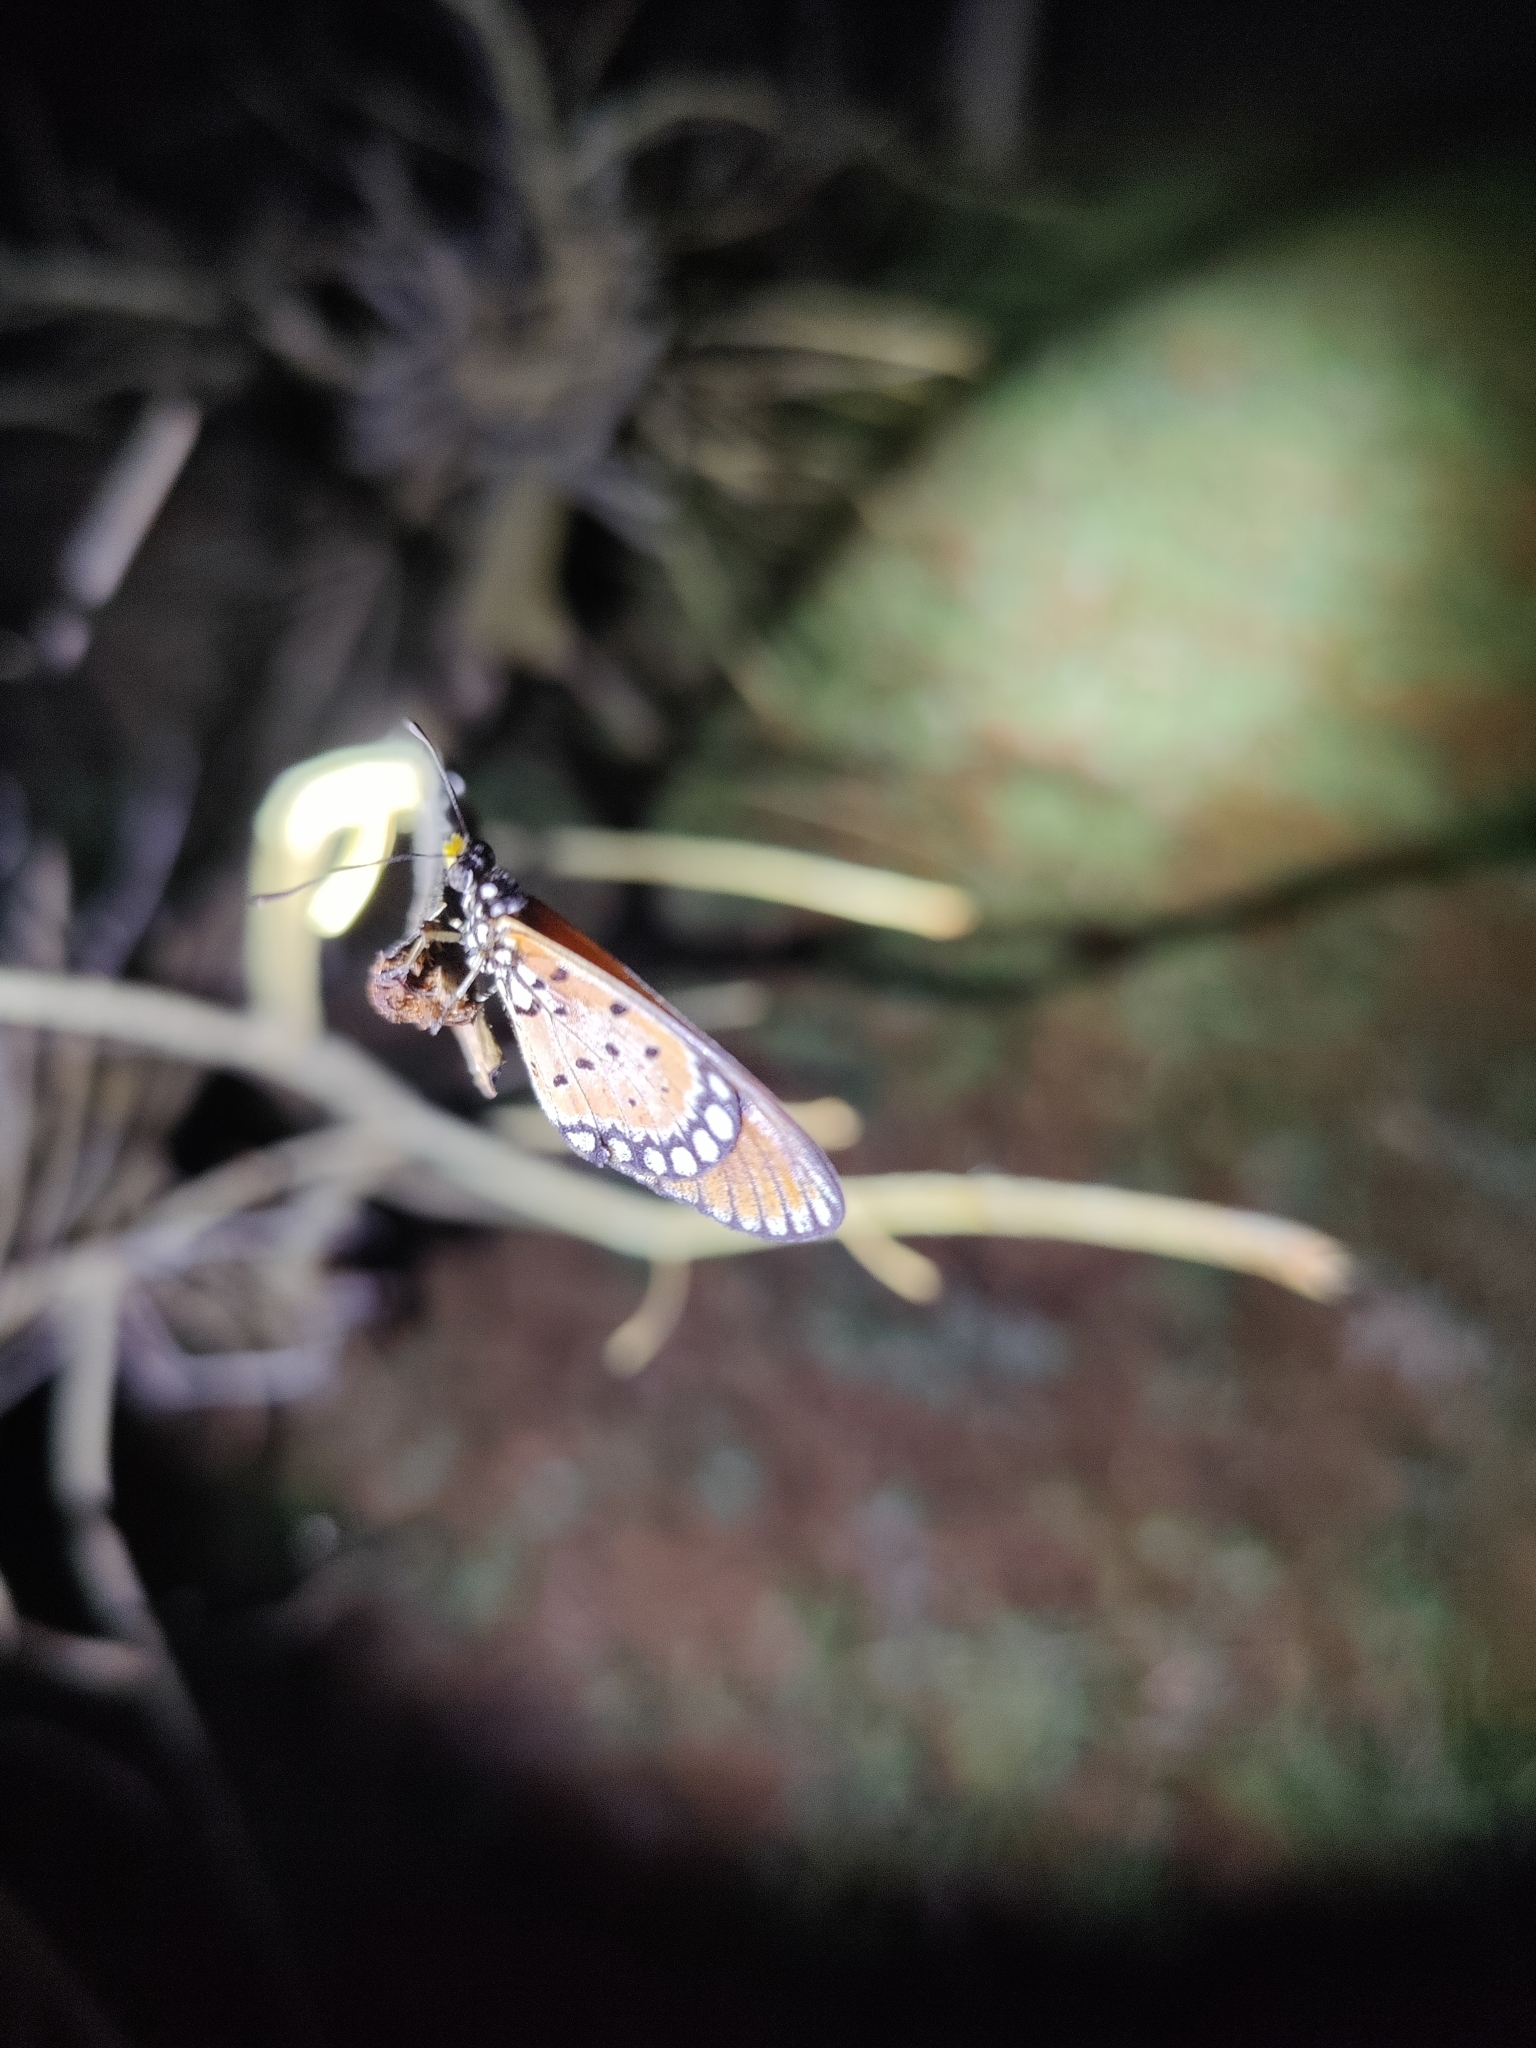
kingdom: Animalia
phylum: Arthropoda
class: Insecta
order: Lepidoptera
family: Nymphalidae
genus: Acraea
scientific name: Acraea terpsicore
